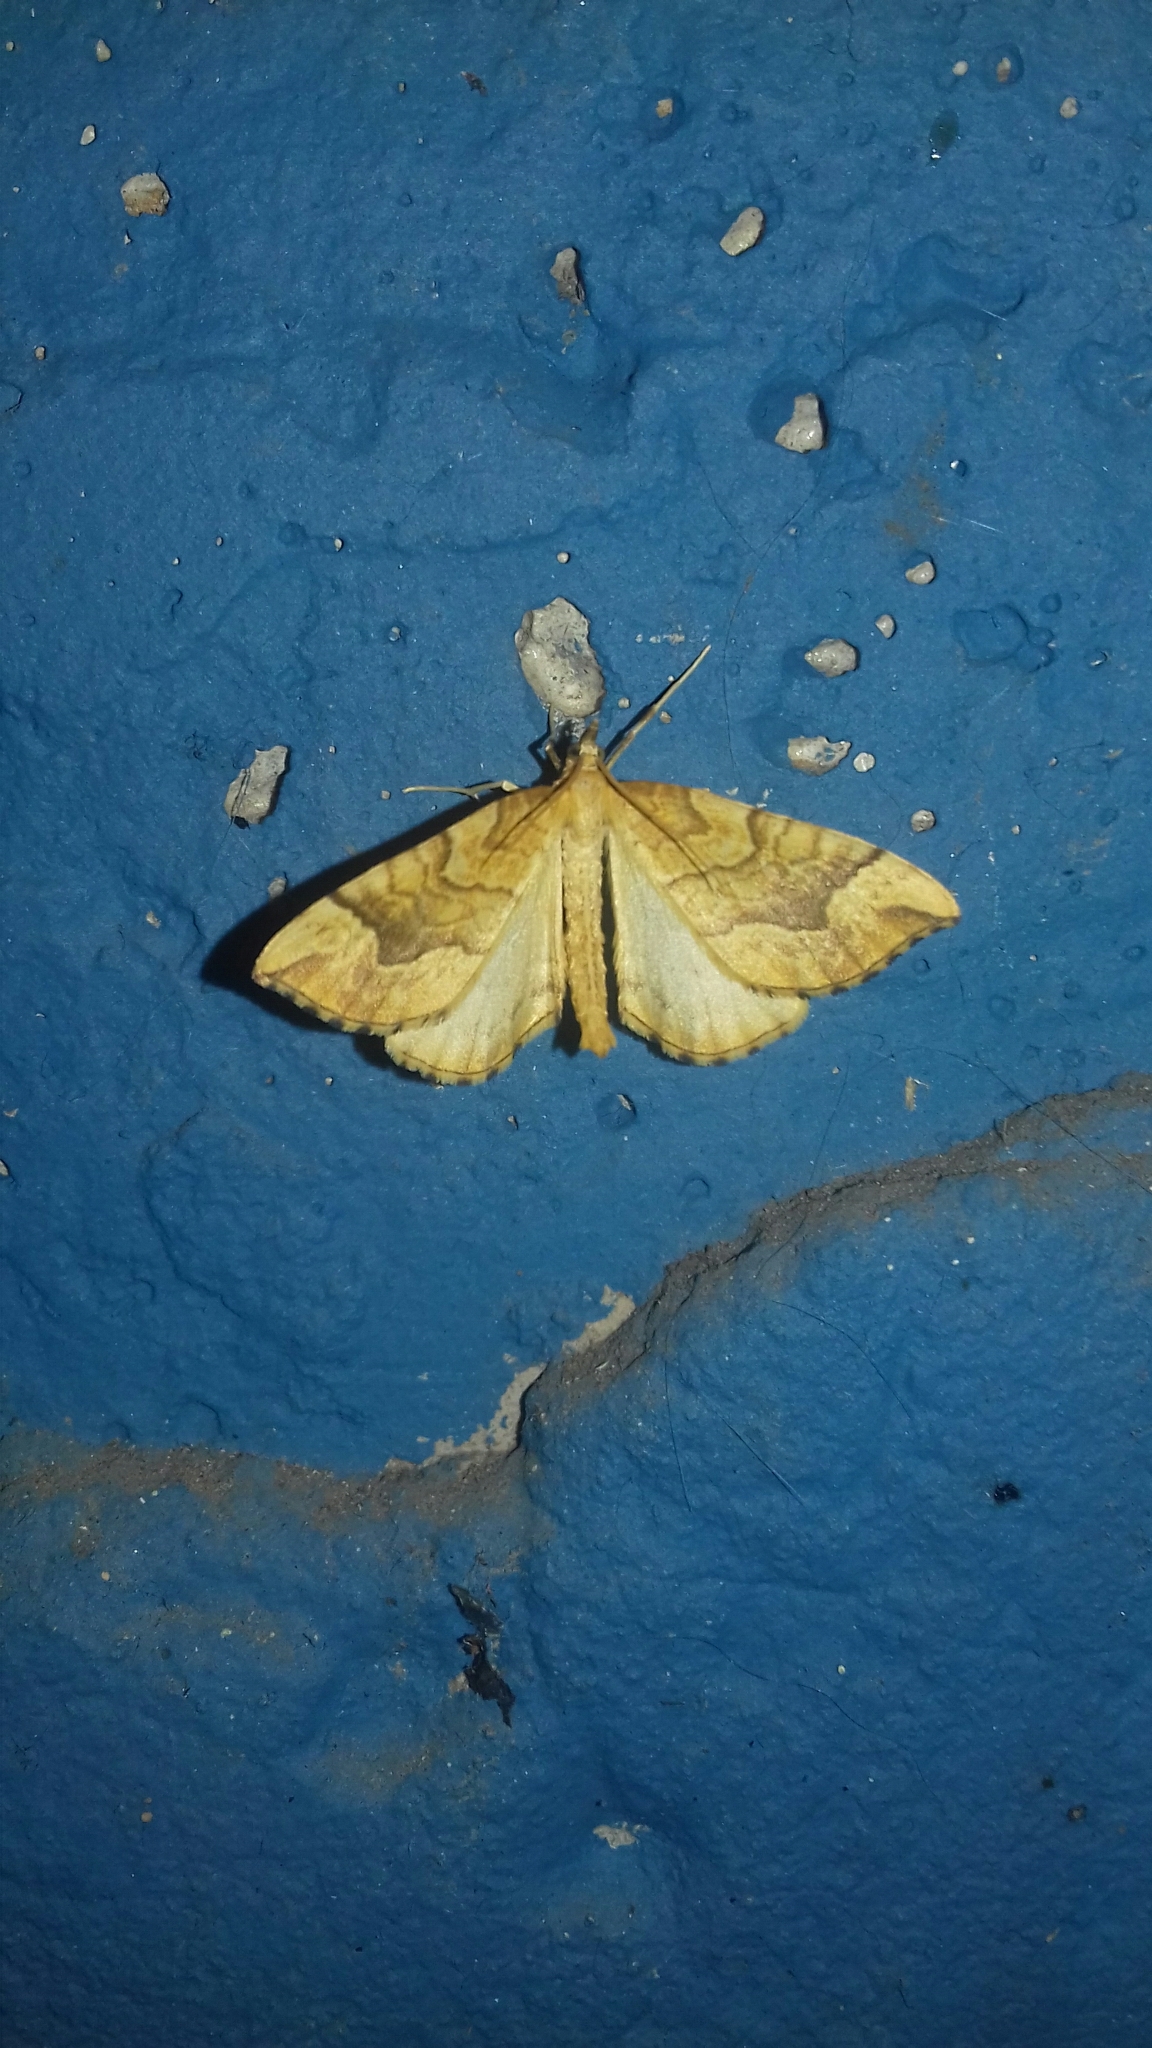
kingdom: Animalia
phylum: Arthropoda
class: Insecta
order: Lepidoptera
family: Geometridae
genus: Eulithis
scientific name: Eulithis mellinata
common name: Spinach
